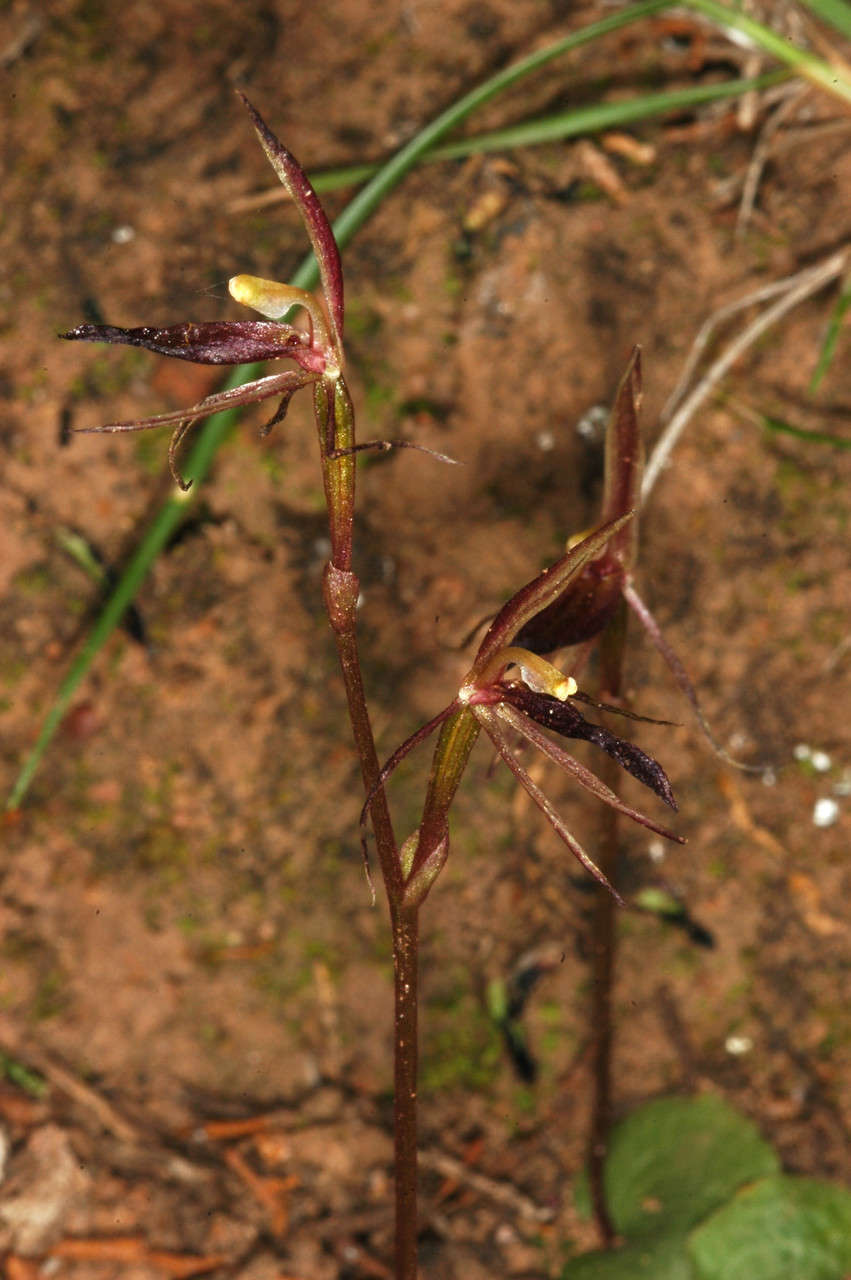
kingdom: Plantae
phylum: Tracheophyta
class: Liliopsida
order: Asparagales
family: Orchidaceae
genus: Cyrtostylis
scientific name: Cyrtostylis reniformis
